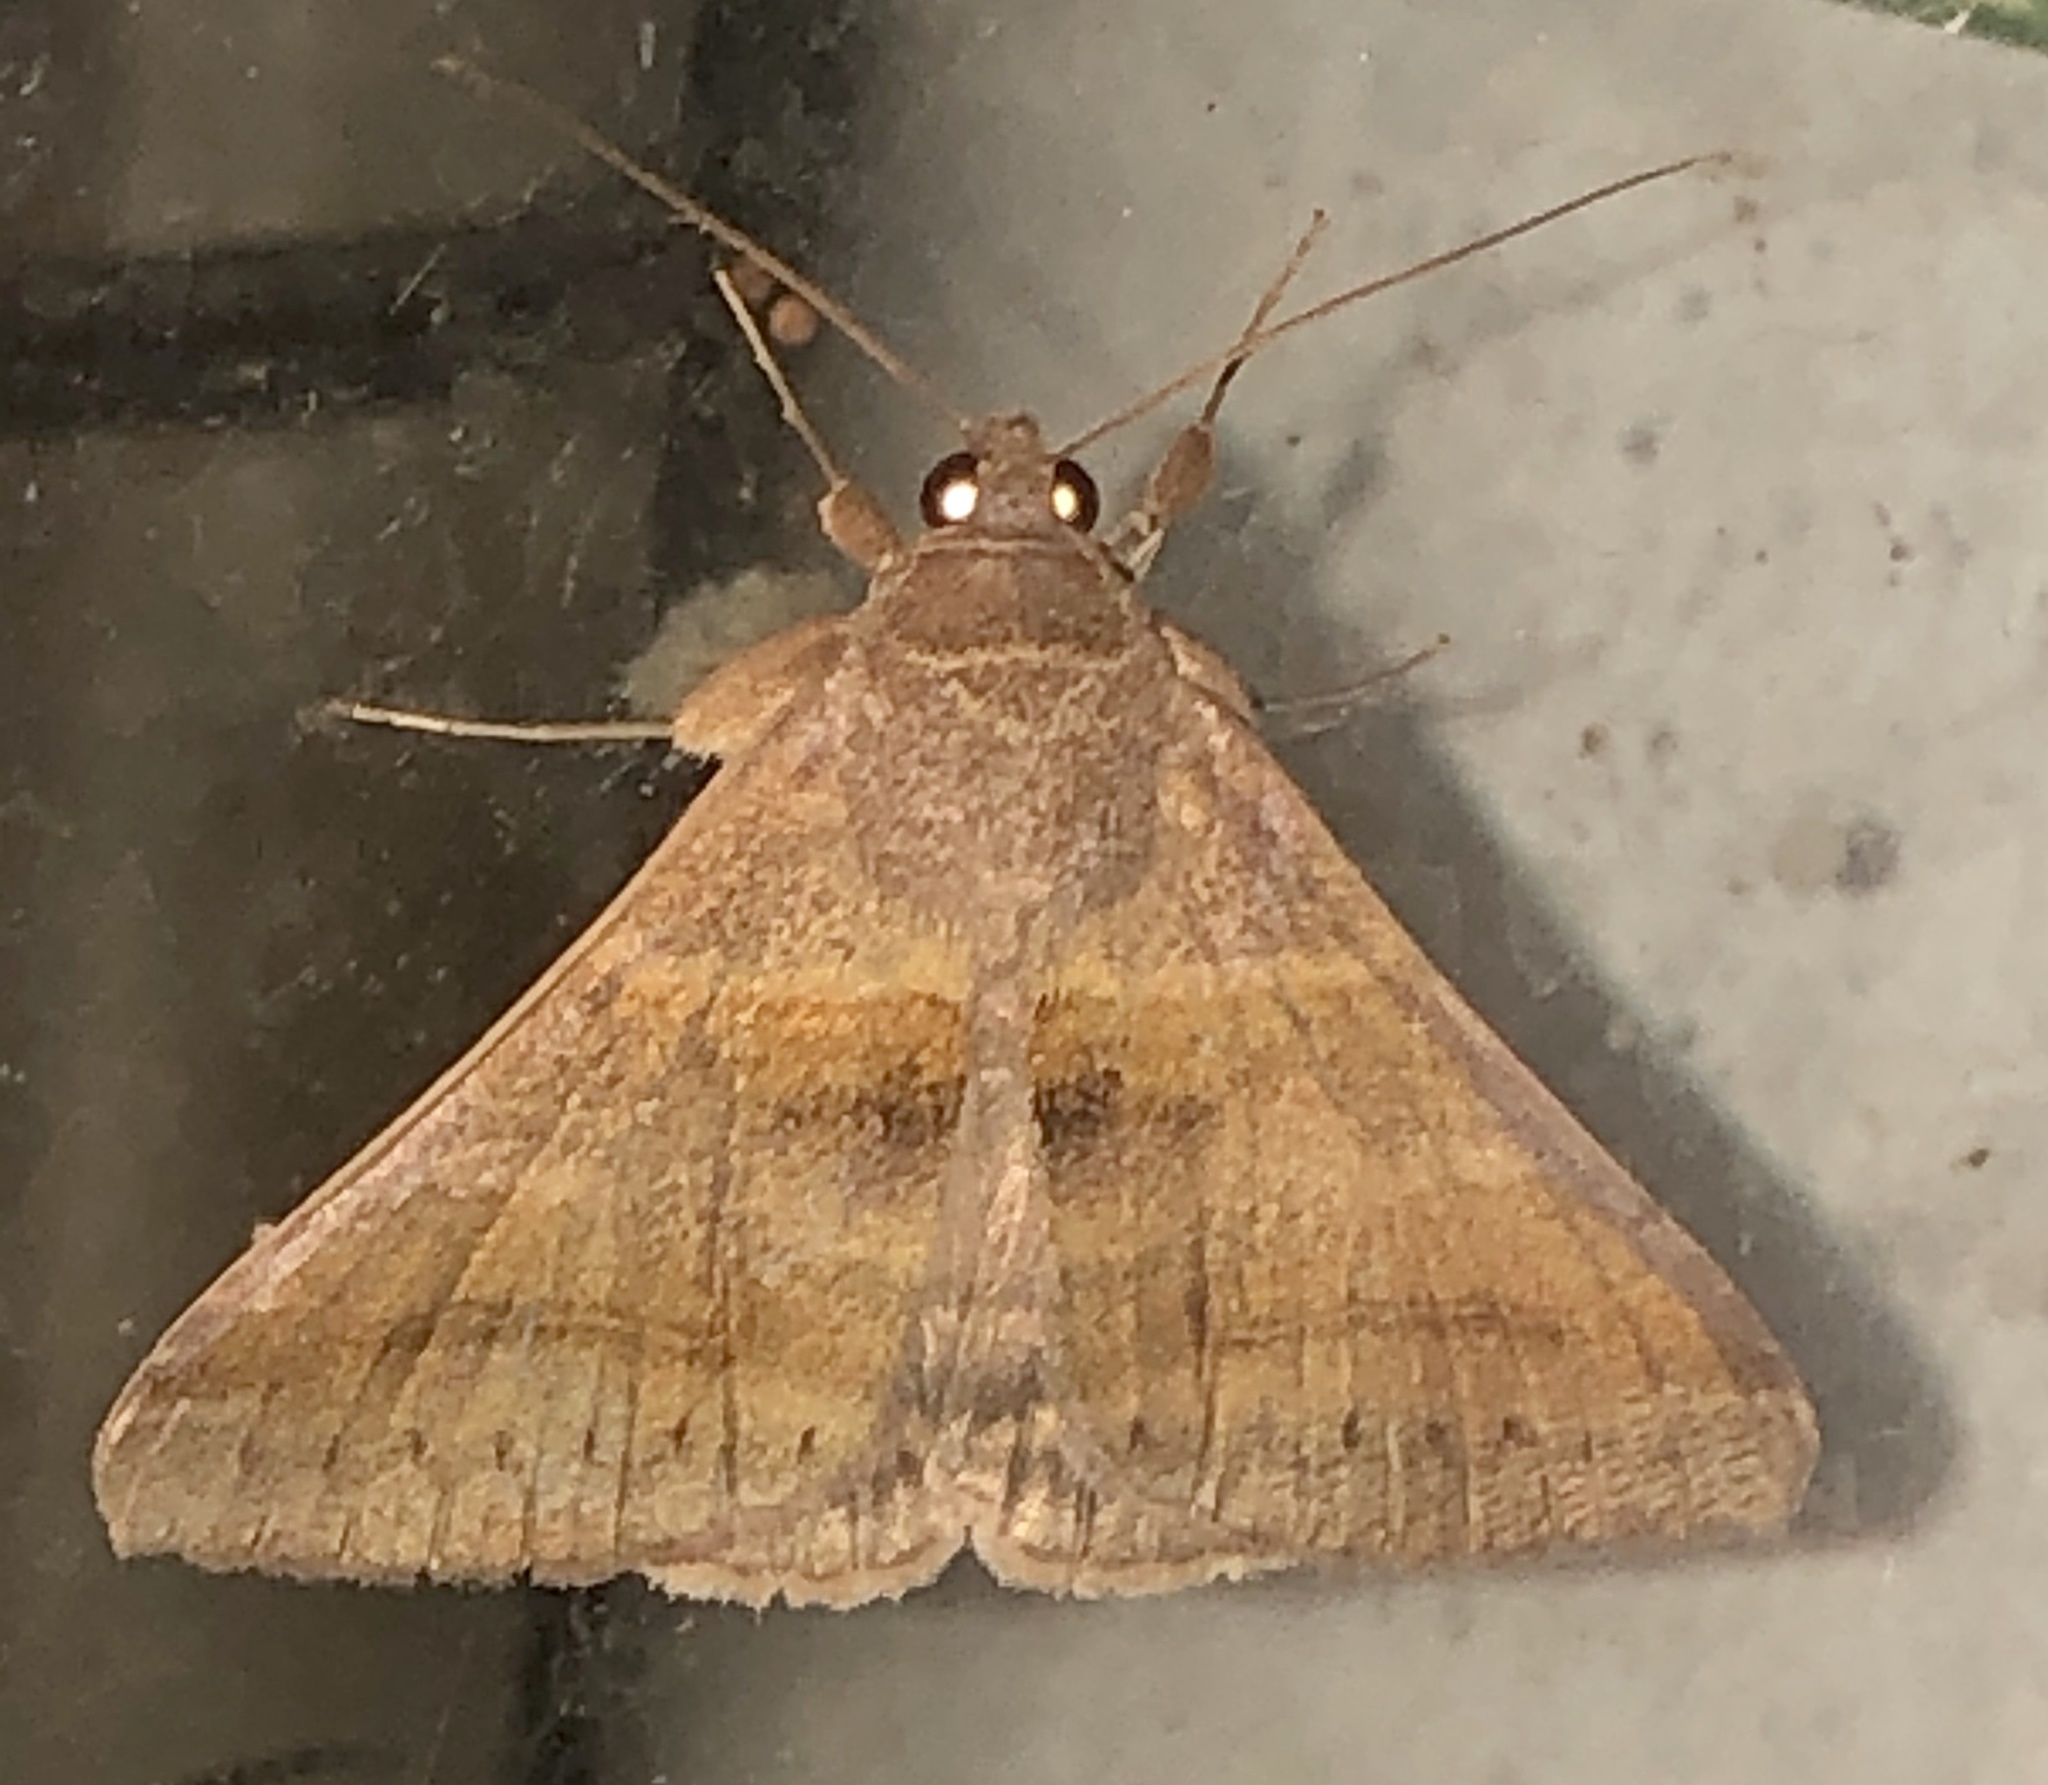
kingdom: Animalia
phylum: Arthropoda
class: Insecta
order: Lepidoptera
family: Erebidae
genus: Mocis
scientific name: Mocis trifasciata
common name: Triple-barred
